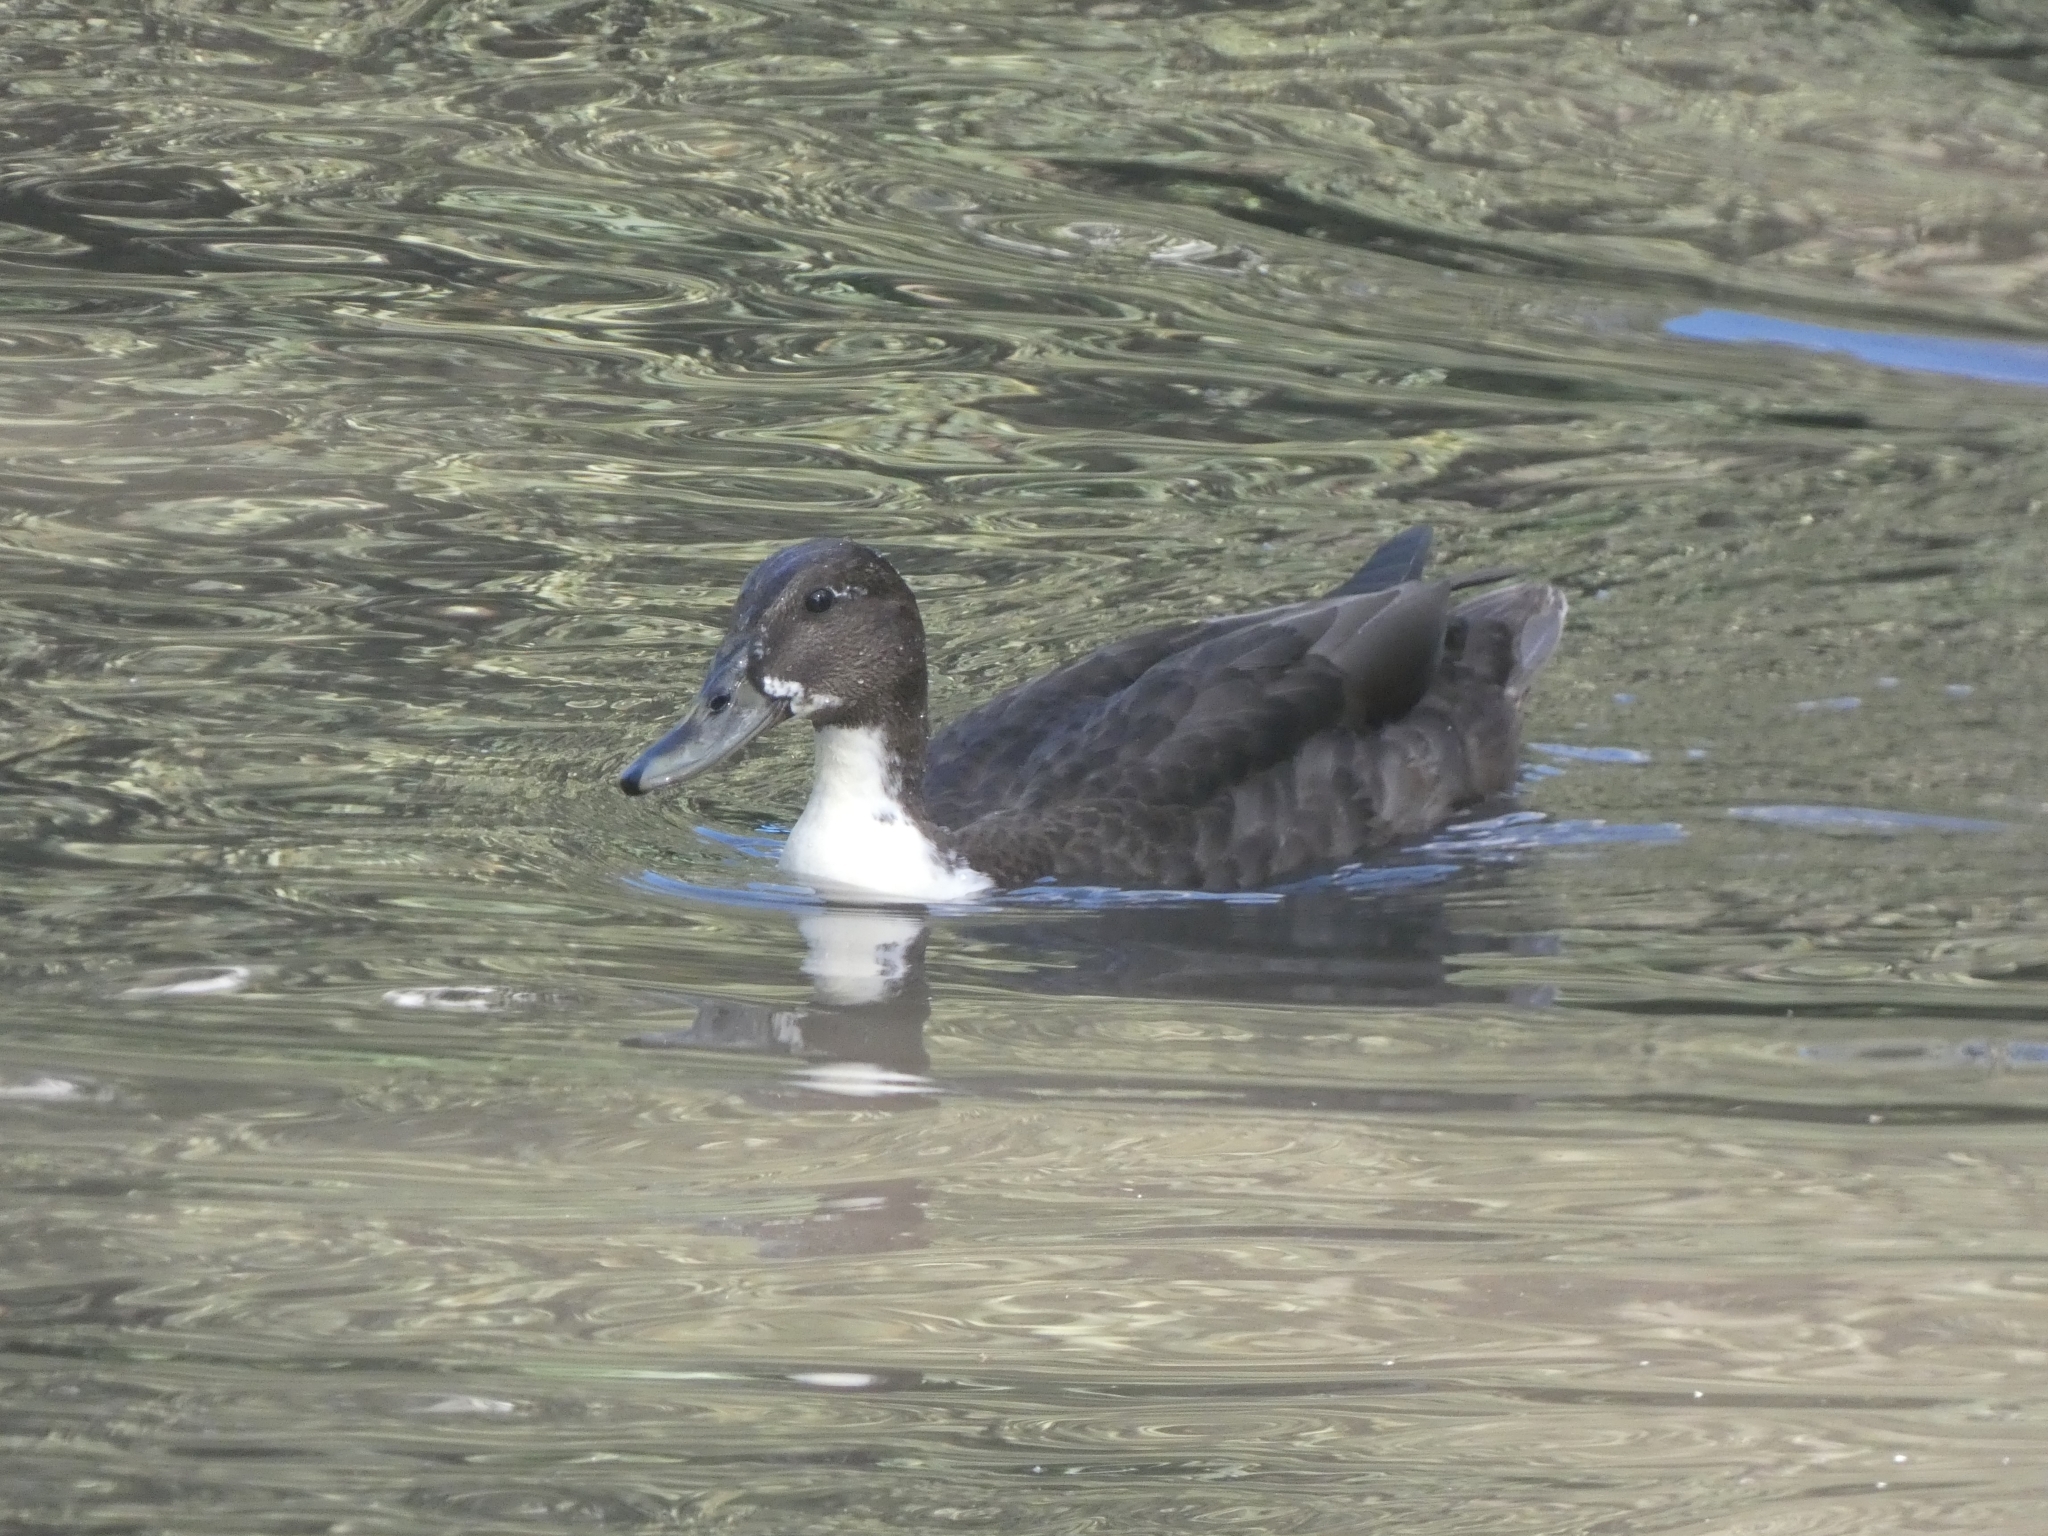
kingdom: Animalia
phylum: Chordata
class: Aves
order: Anseriformes
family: Anatidae
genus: Anas
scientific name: Anas platyrhynchos
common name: Mallard
